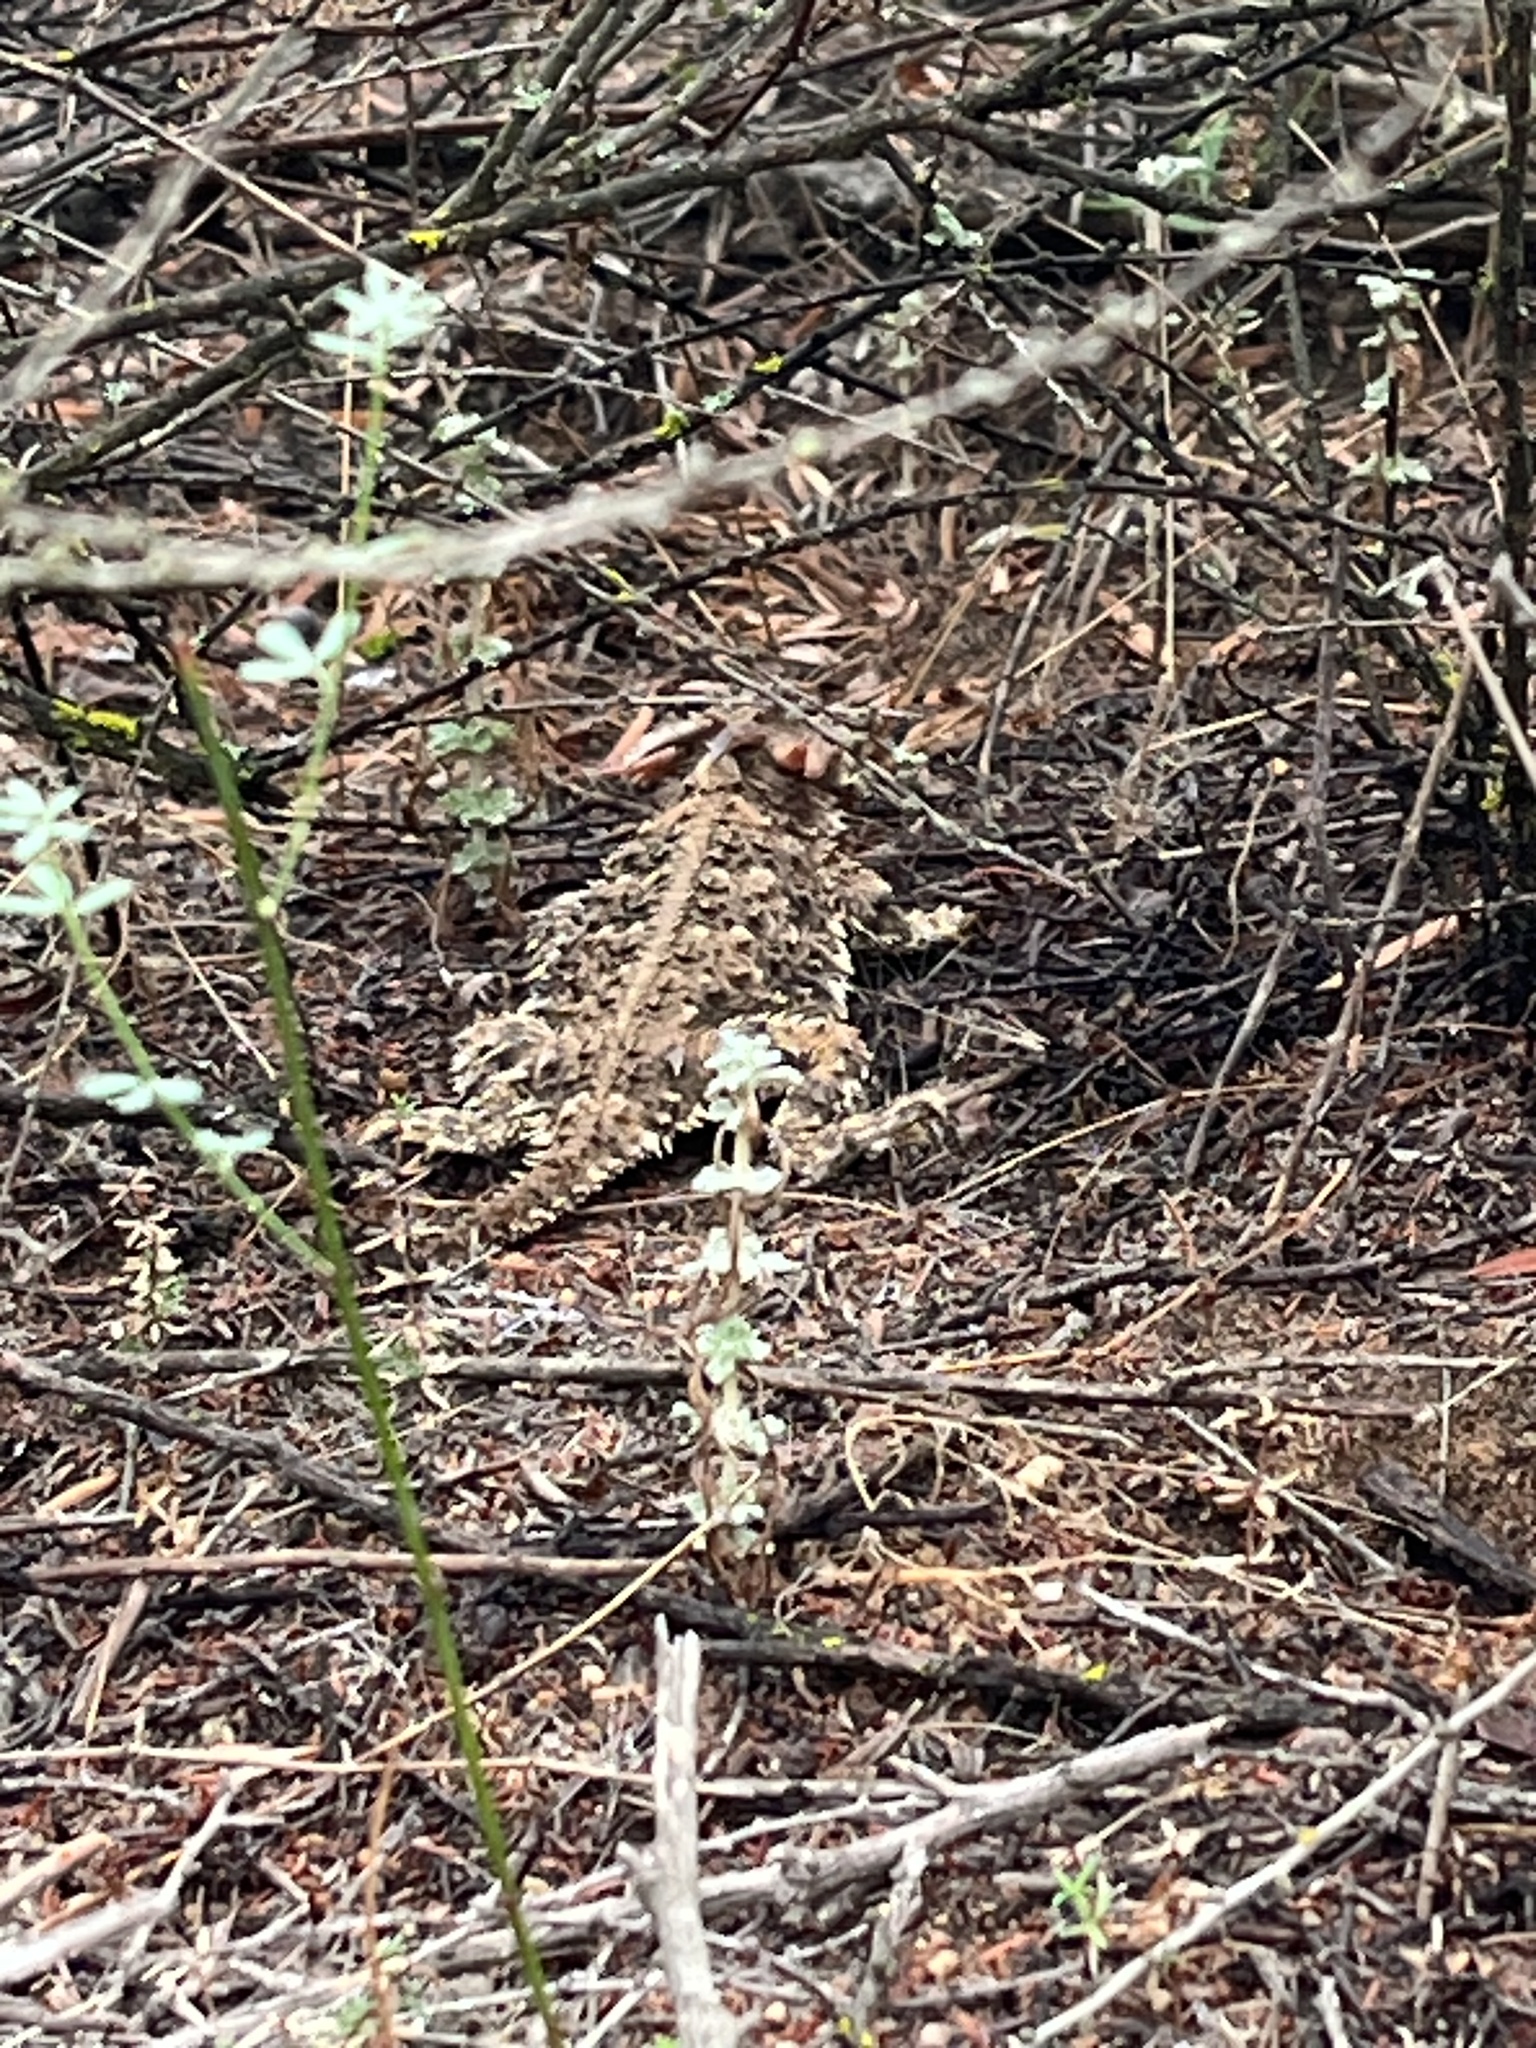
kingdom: Animalia
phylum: Chordata
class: Squamata
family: Phrynosomatidae
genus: Phrynosoma
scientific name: Phrynosoma blainvillii
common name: San diego horned lizard
